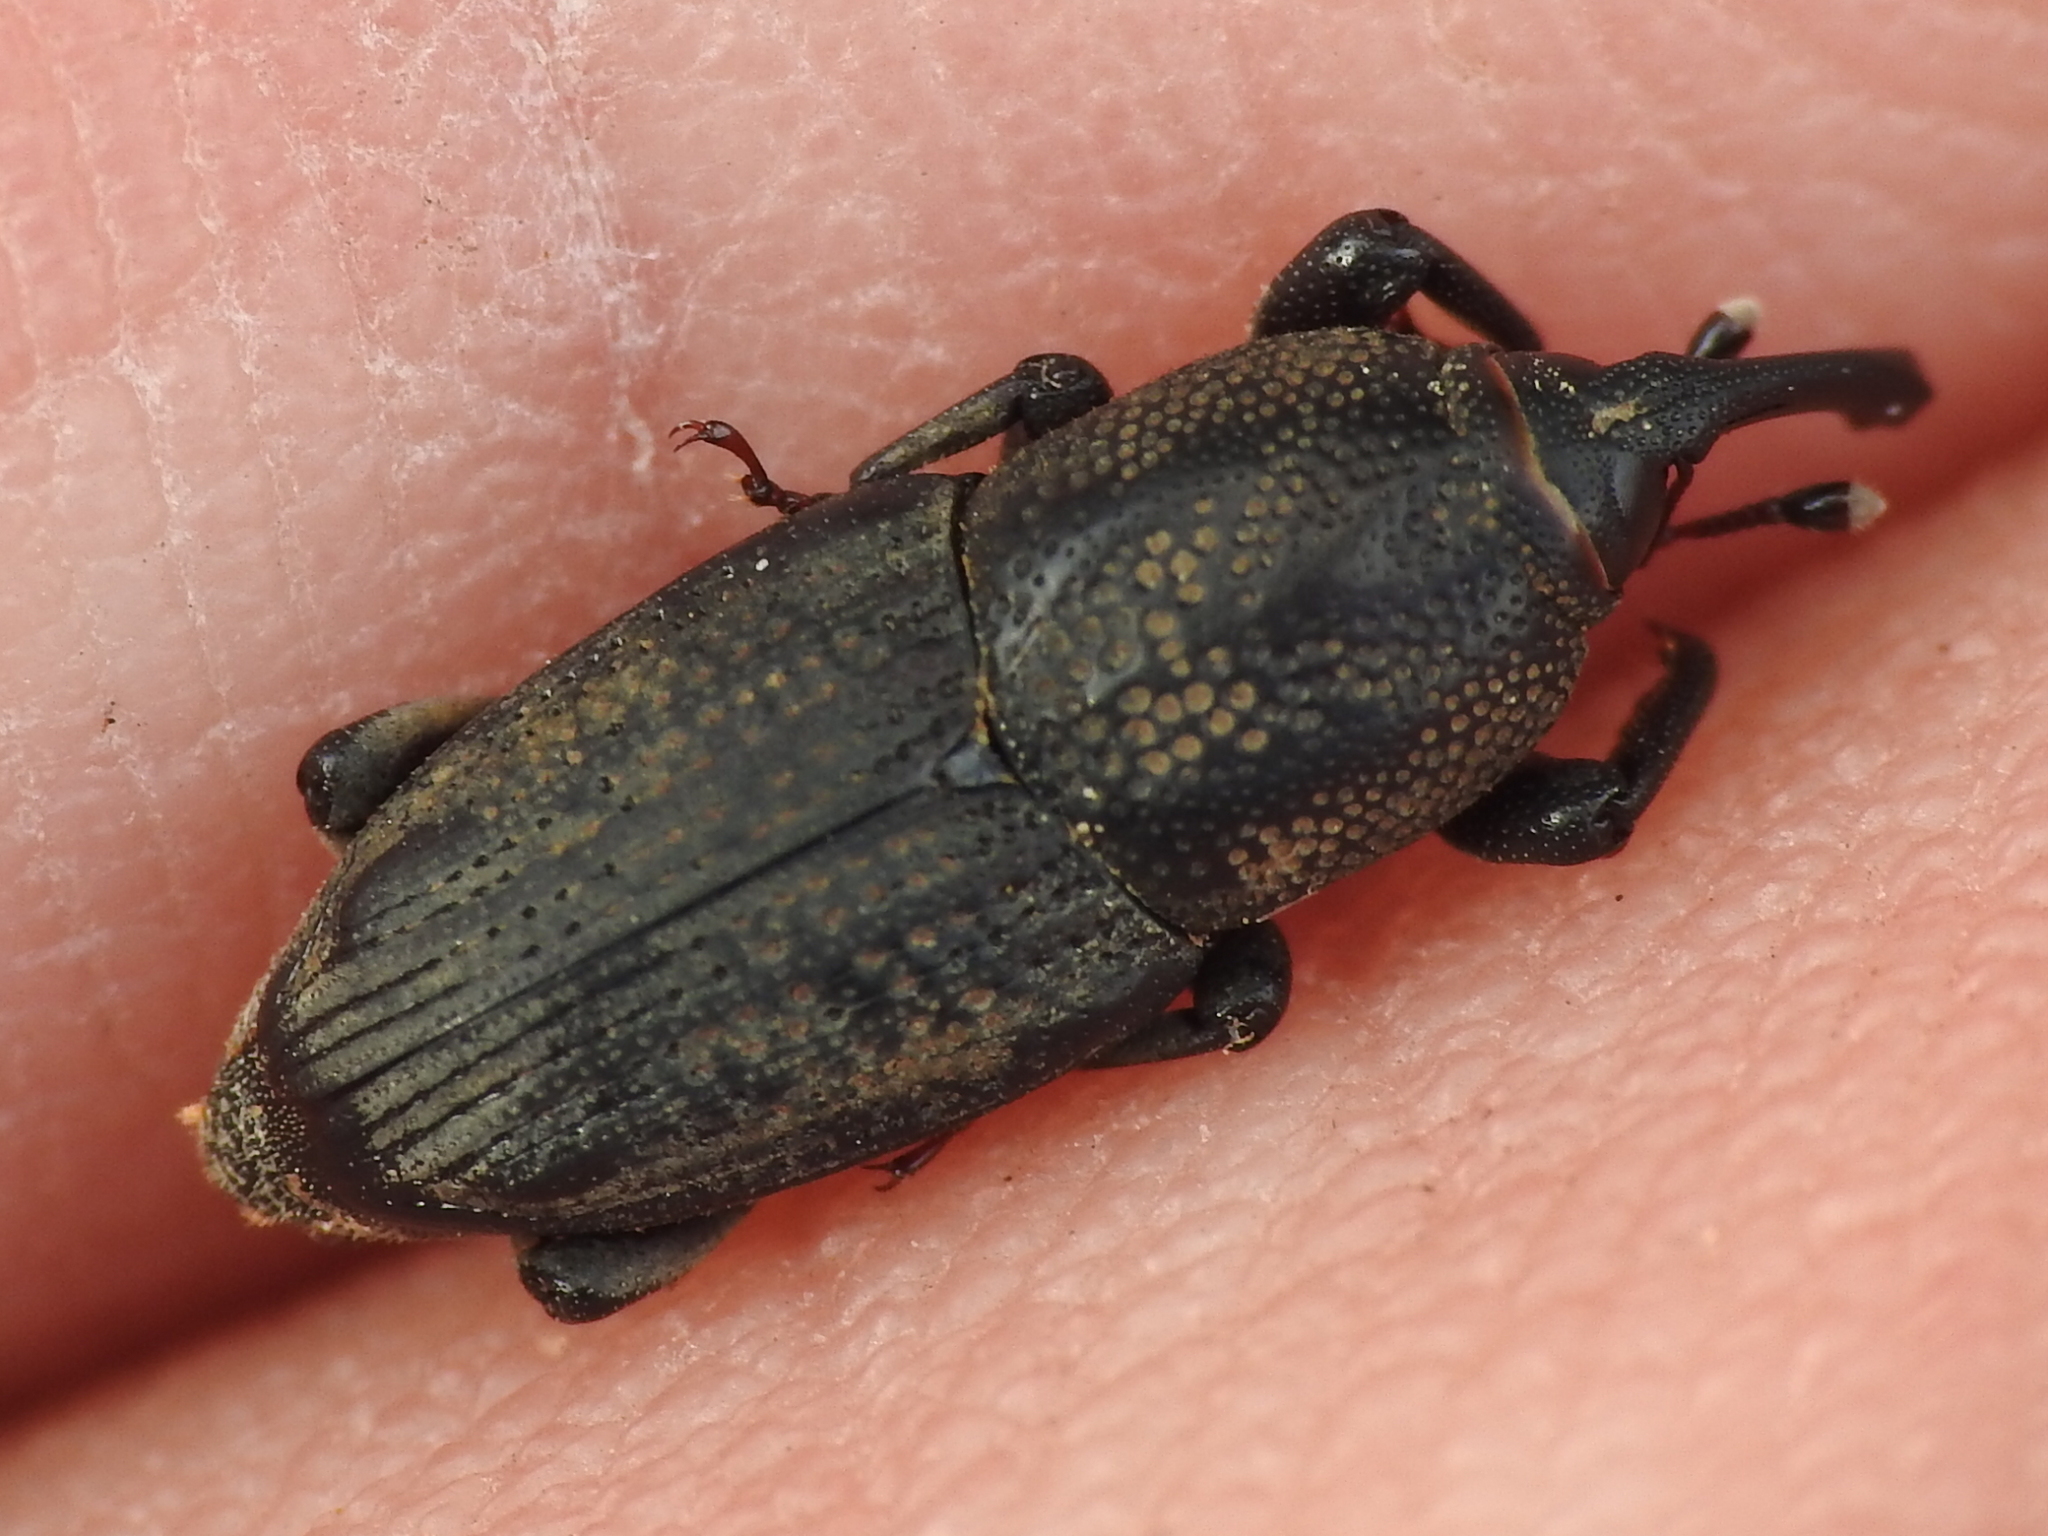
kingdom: Animalia
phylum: Arthropoda
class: Insecta
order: Coleoptera
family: Dryophthoridae
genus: Sphenophorus
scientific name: Sphenophorus venatus
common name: Hunting billbug
